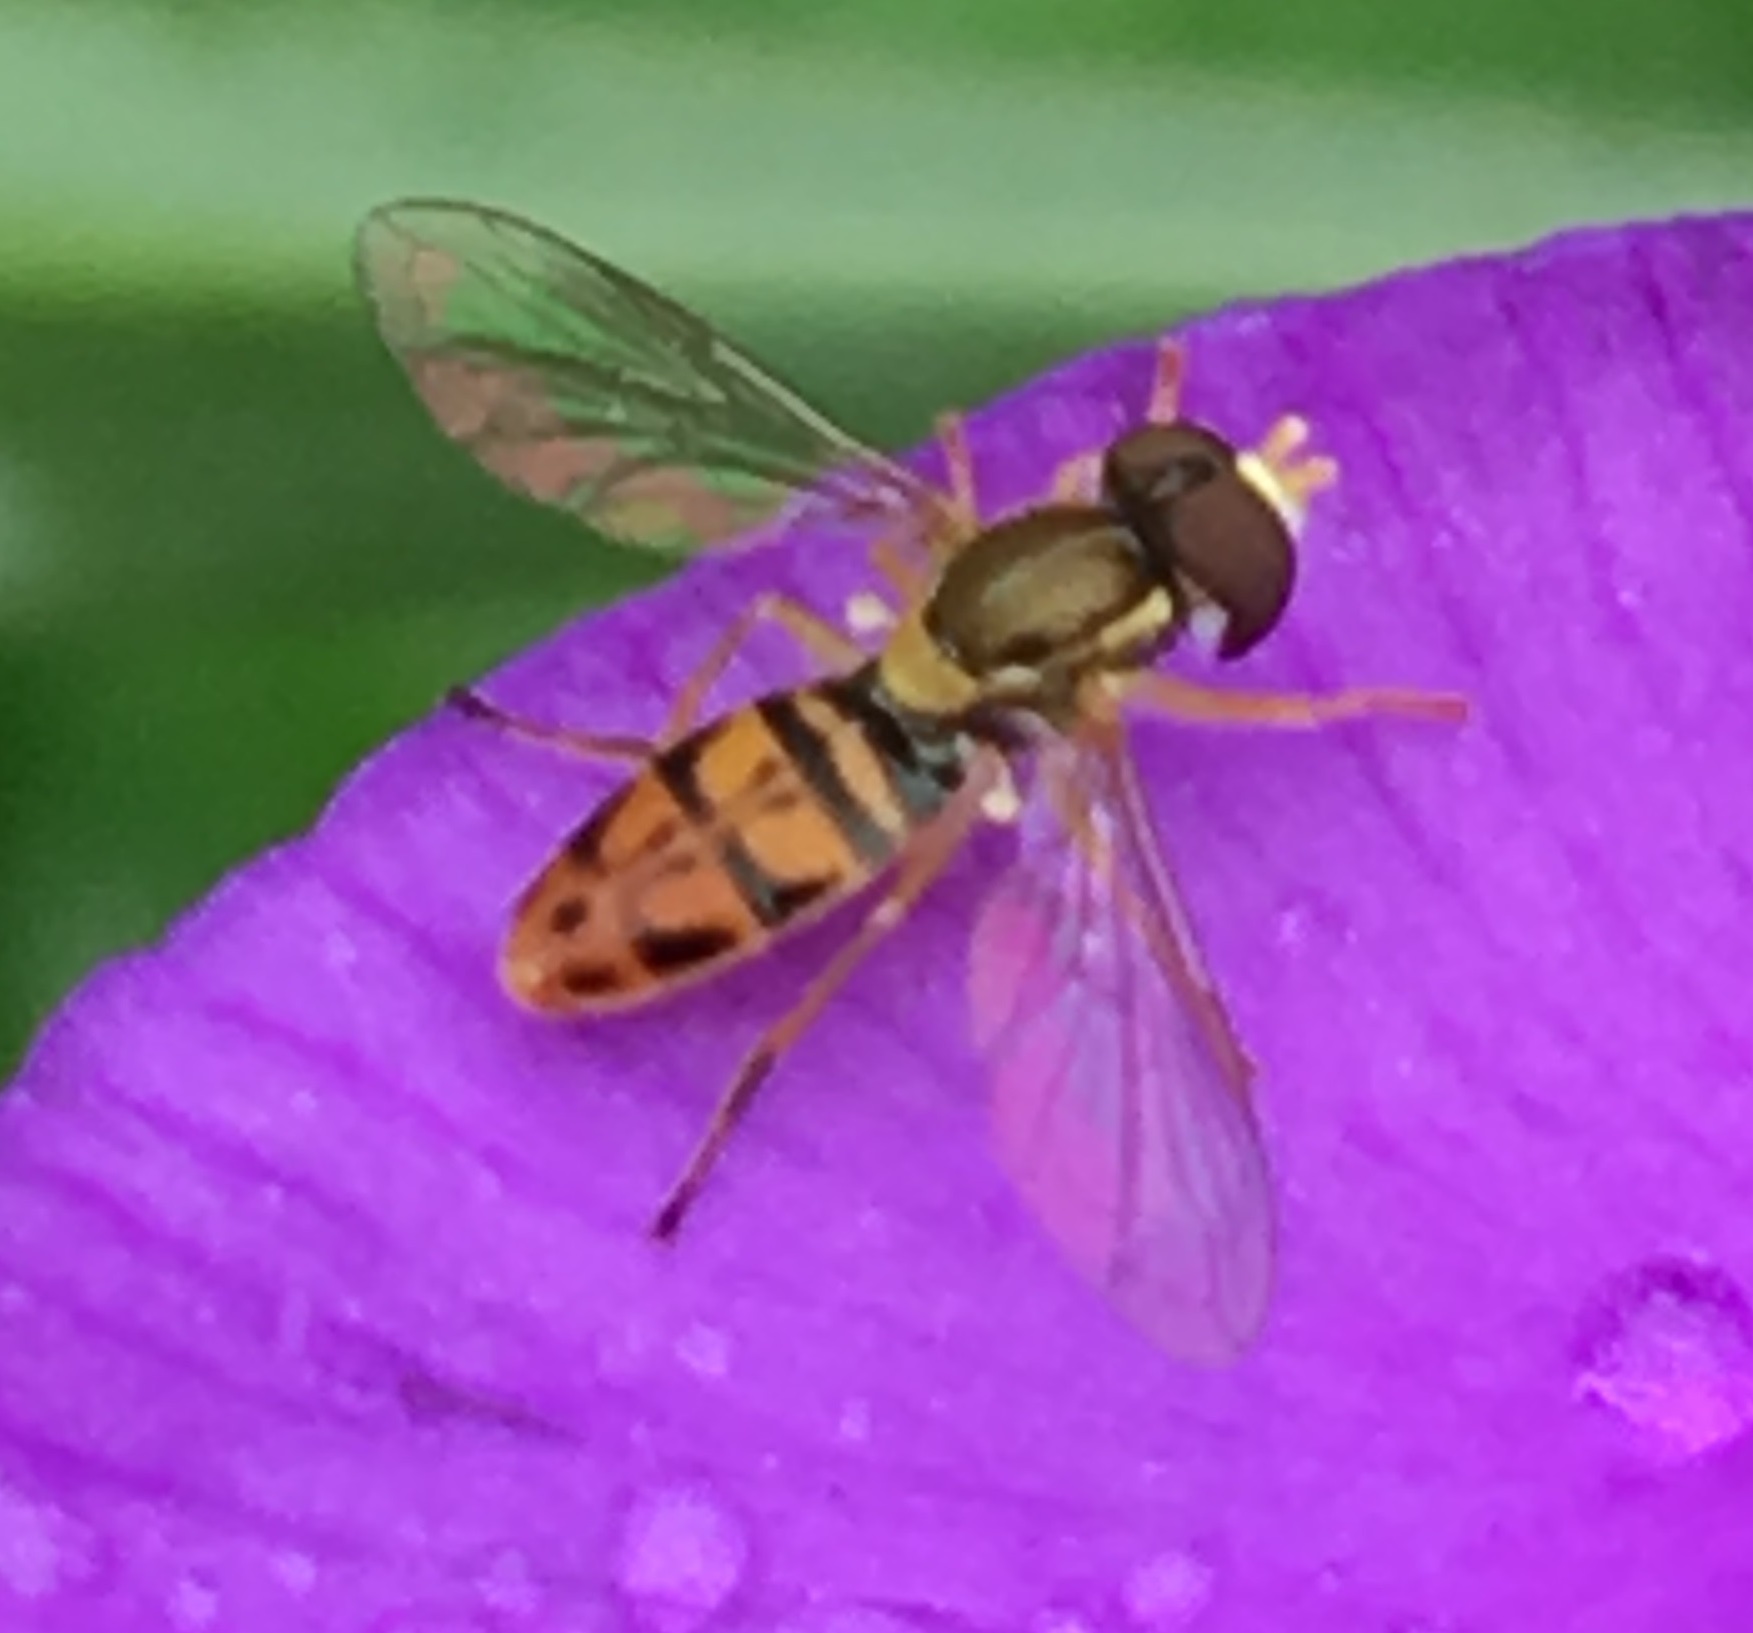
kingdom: Animalia
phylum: Arthropoda
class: Insecta
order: Diptera
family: Syrphidae
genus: Toxomerus
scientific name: Toxomerus marginatus
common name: Syrphid fly
